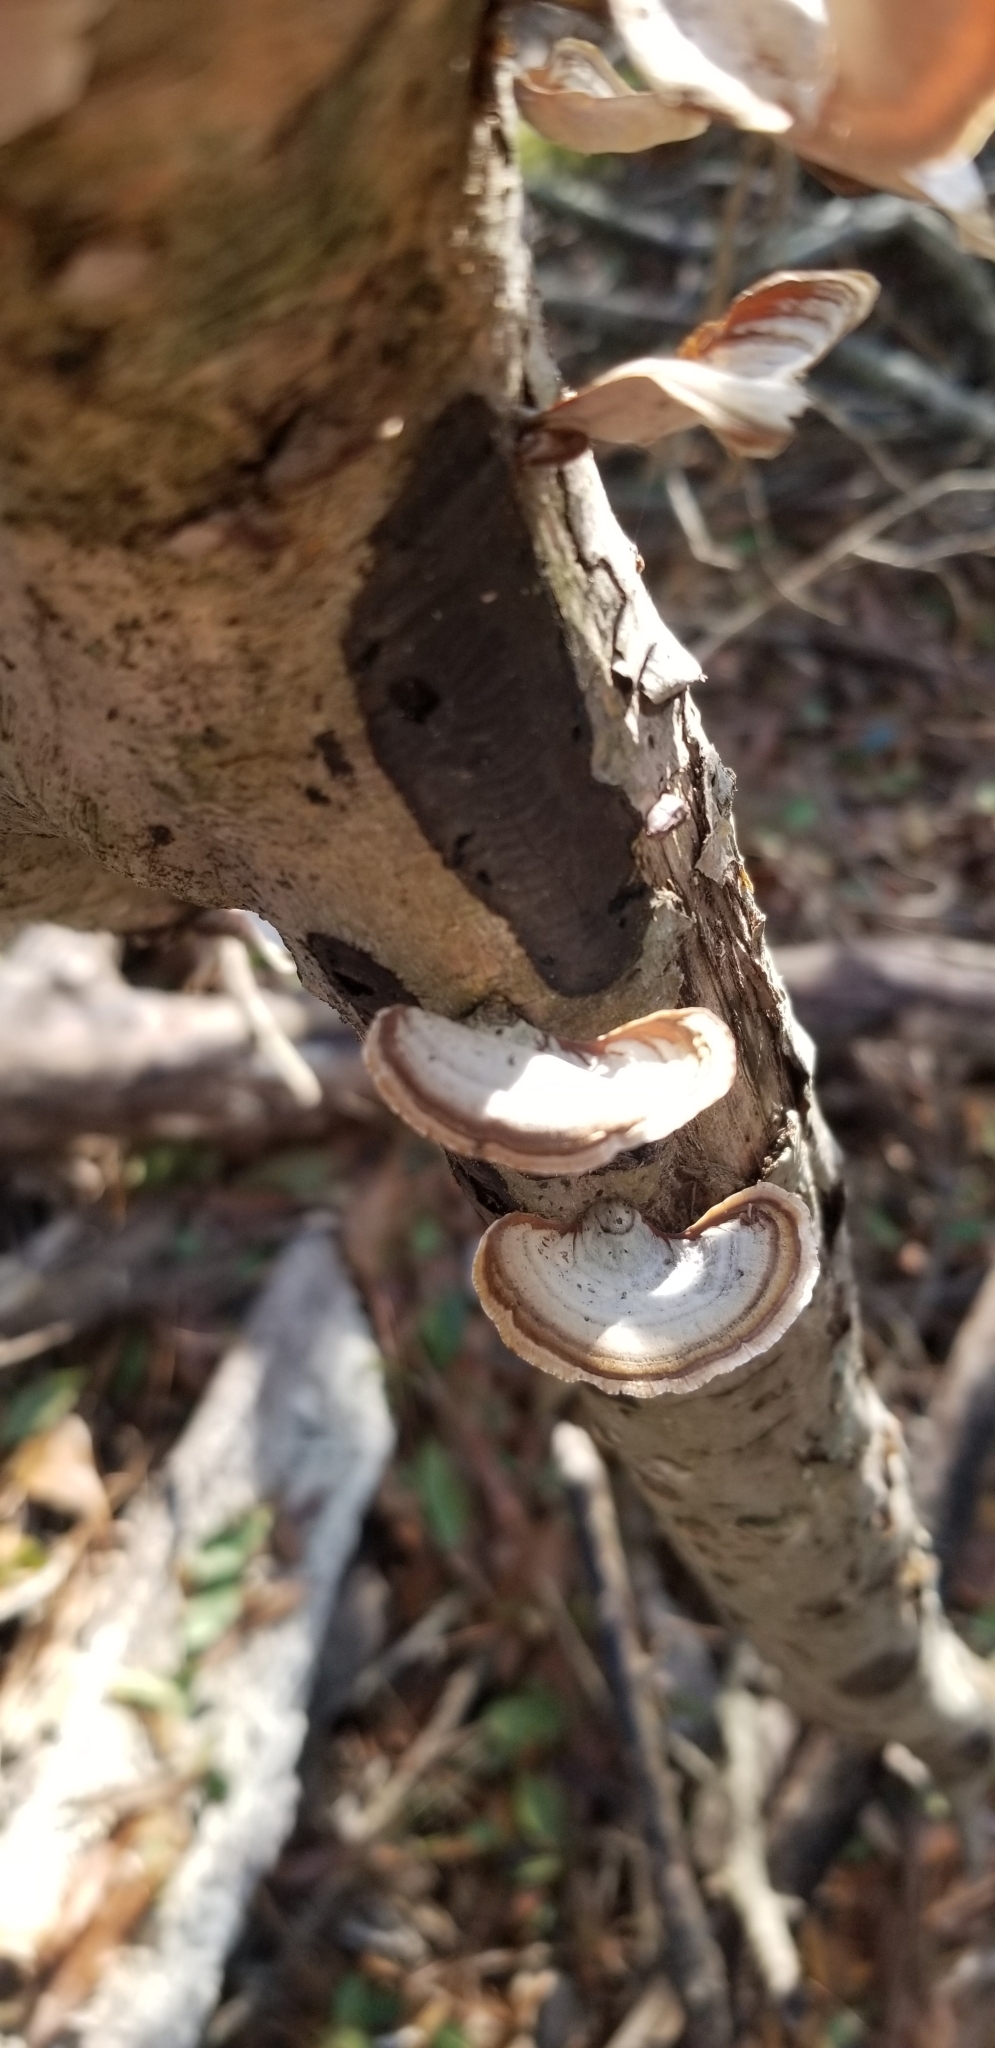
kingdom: Fungi
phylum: Basidiomycota
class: Agaricomycetes
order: Russulales
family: Stereaceae
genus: Stereum
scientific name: Stereum lobatum
